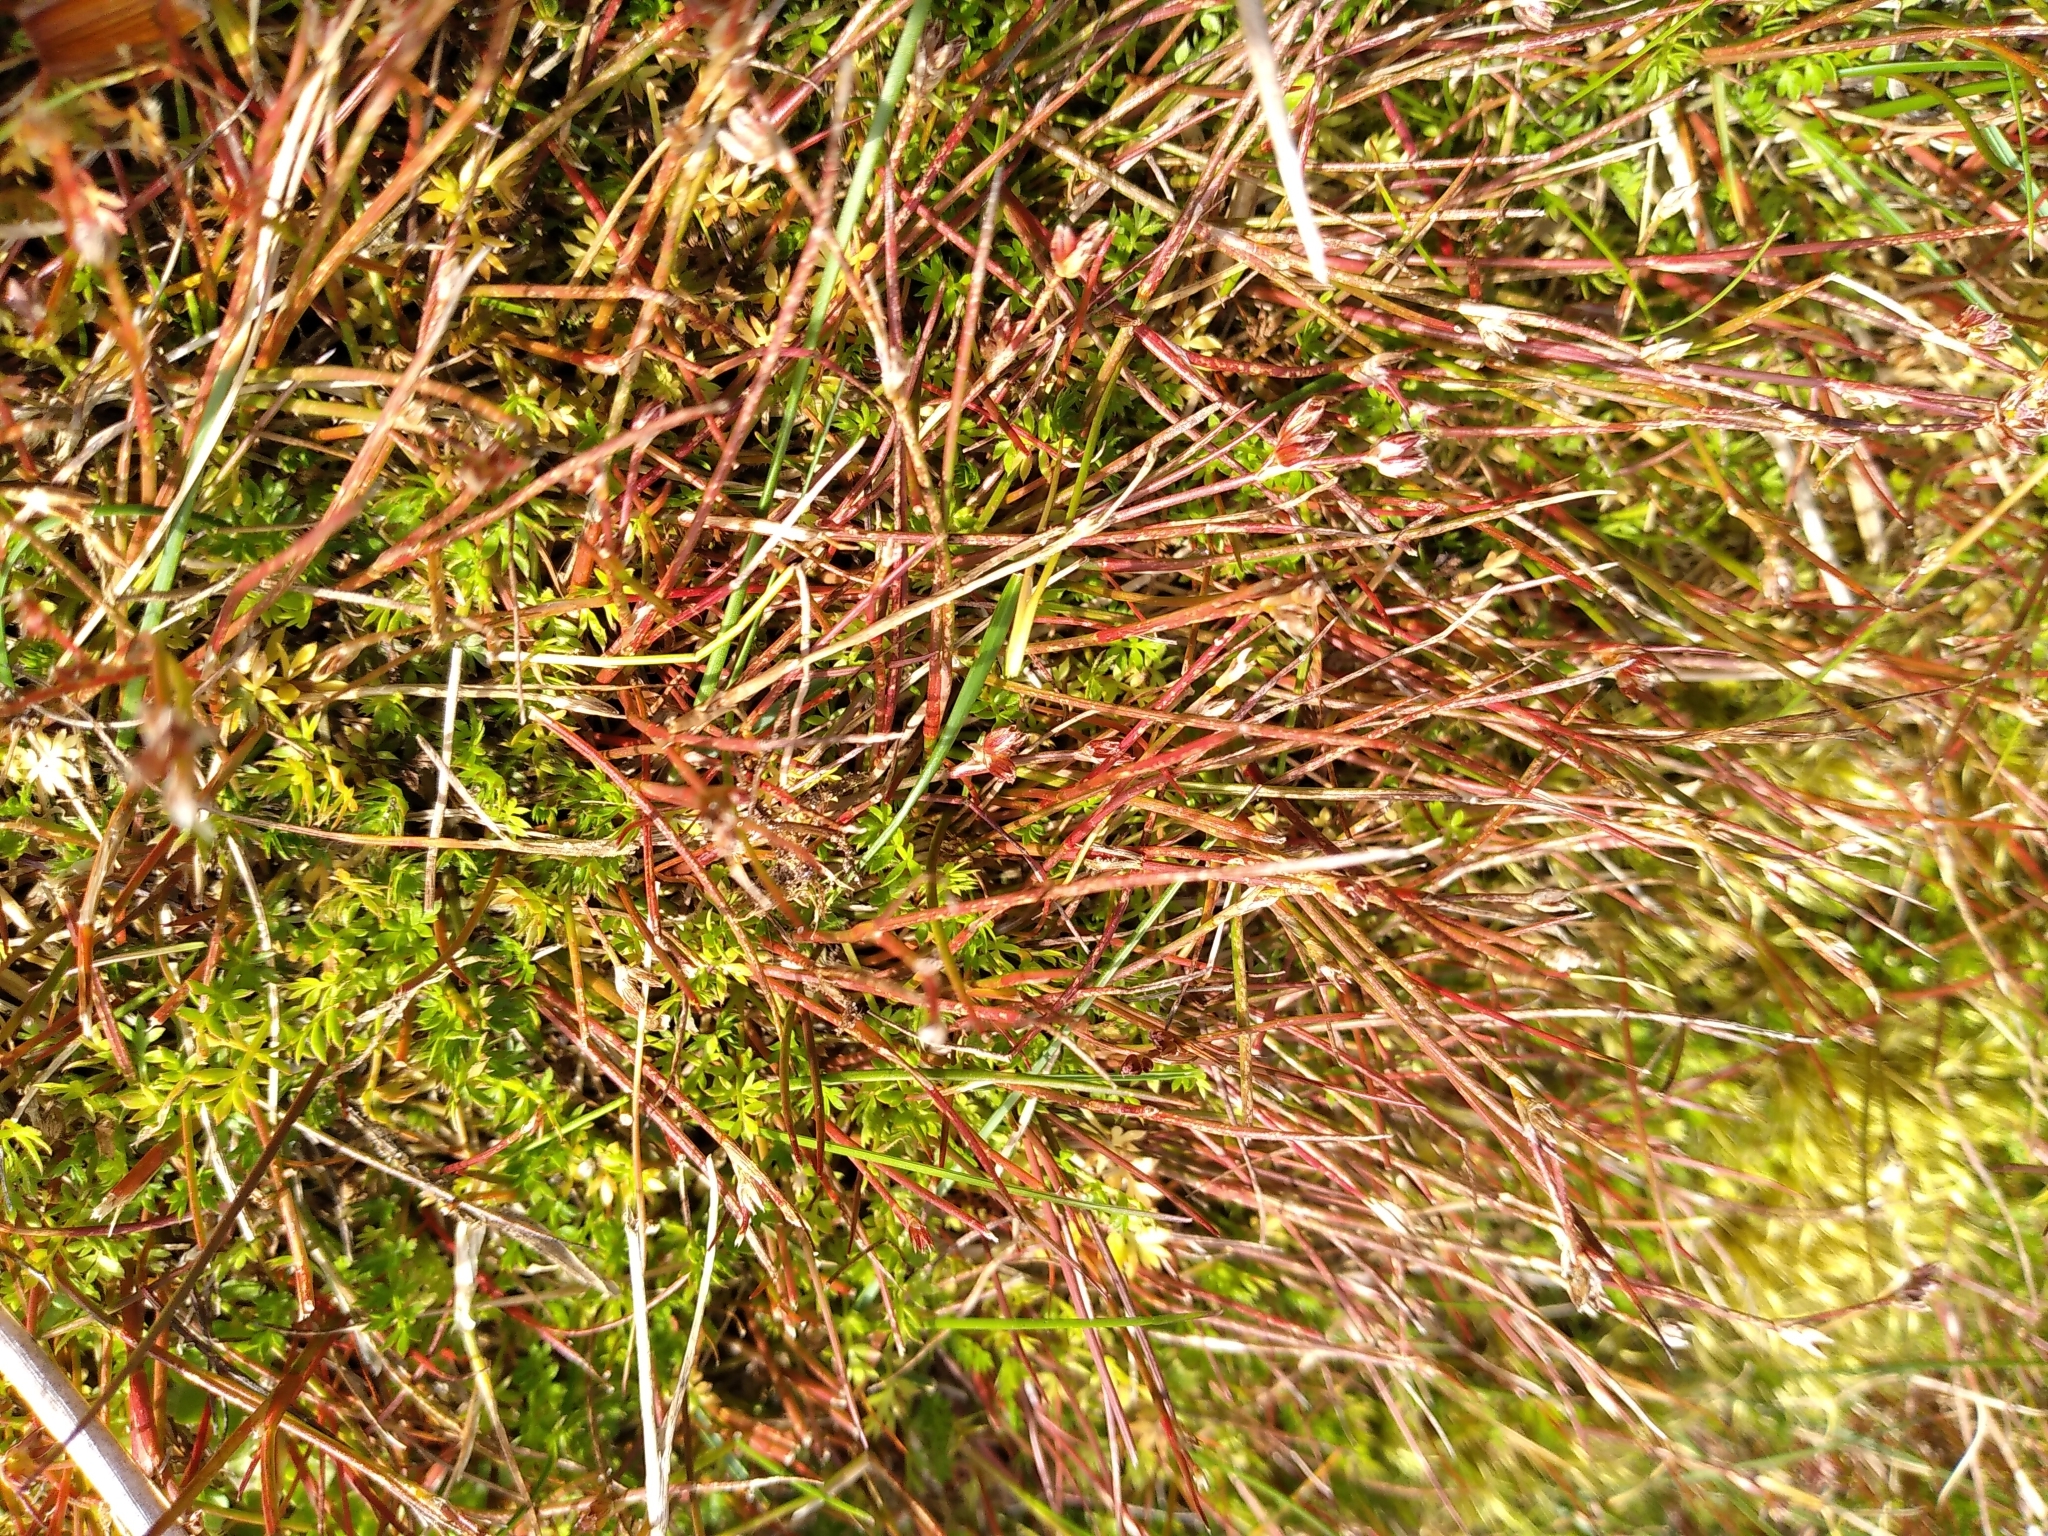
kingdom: Plantae
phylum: Tracheophyta
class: Liliopsida
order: Poales
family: Juncaceae
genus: Juncus
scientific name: Juncus bulbosus
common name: Bulbous rush
